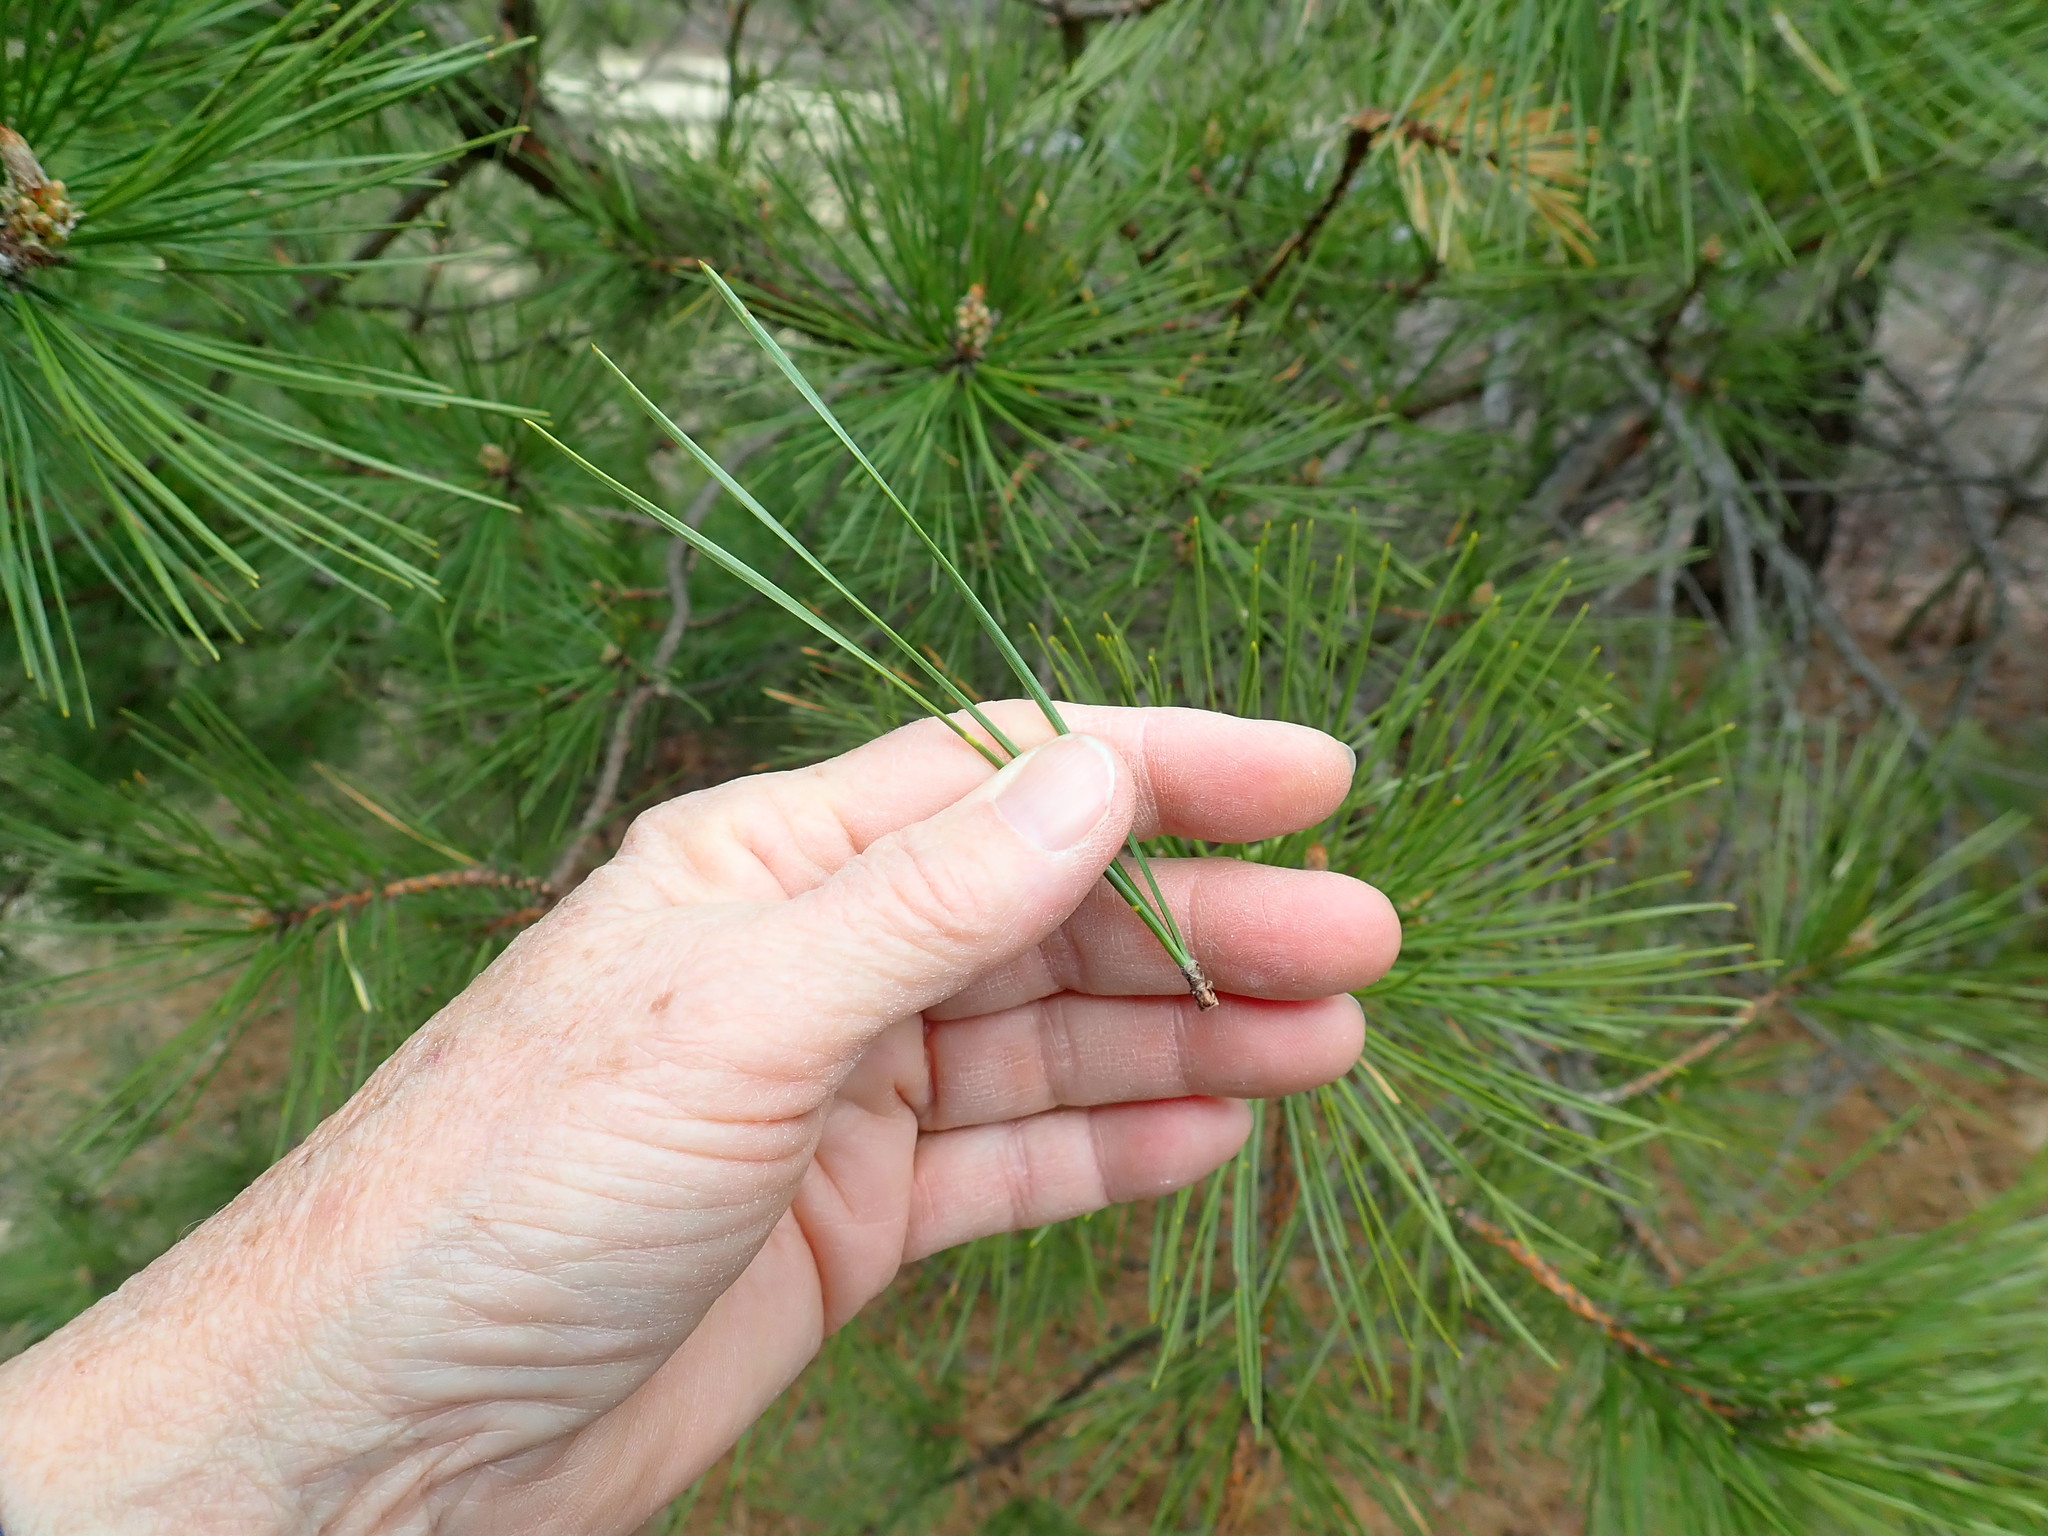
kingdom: Plantae
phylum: Tracheophyta
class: Pinopsida
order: Pinales
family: Pinaceae
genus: Pinus
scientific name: Pinus rigida
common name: Pitch pine
